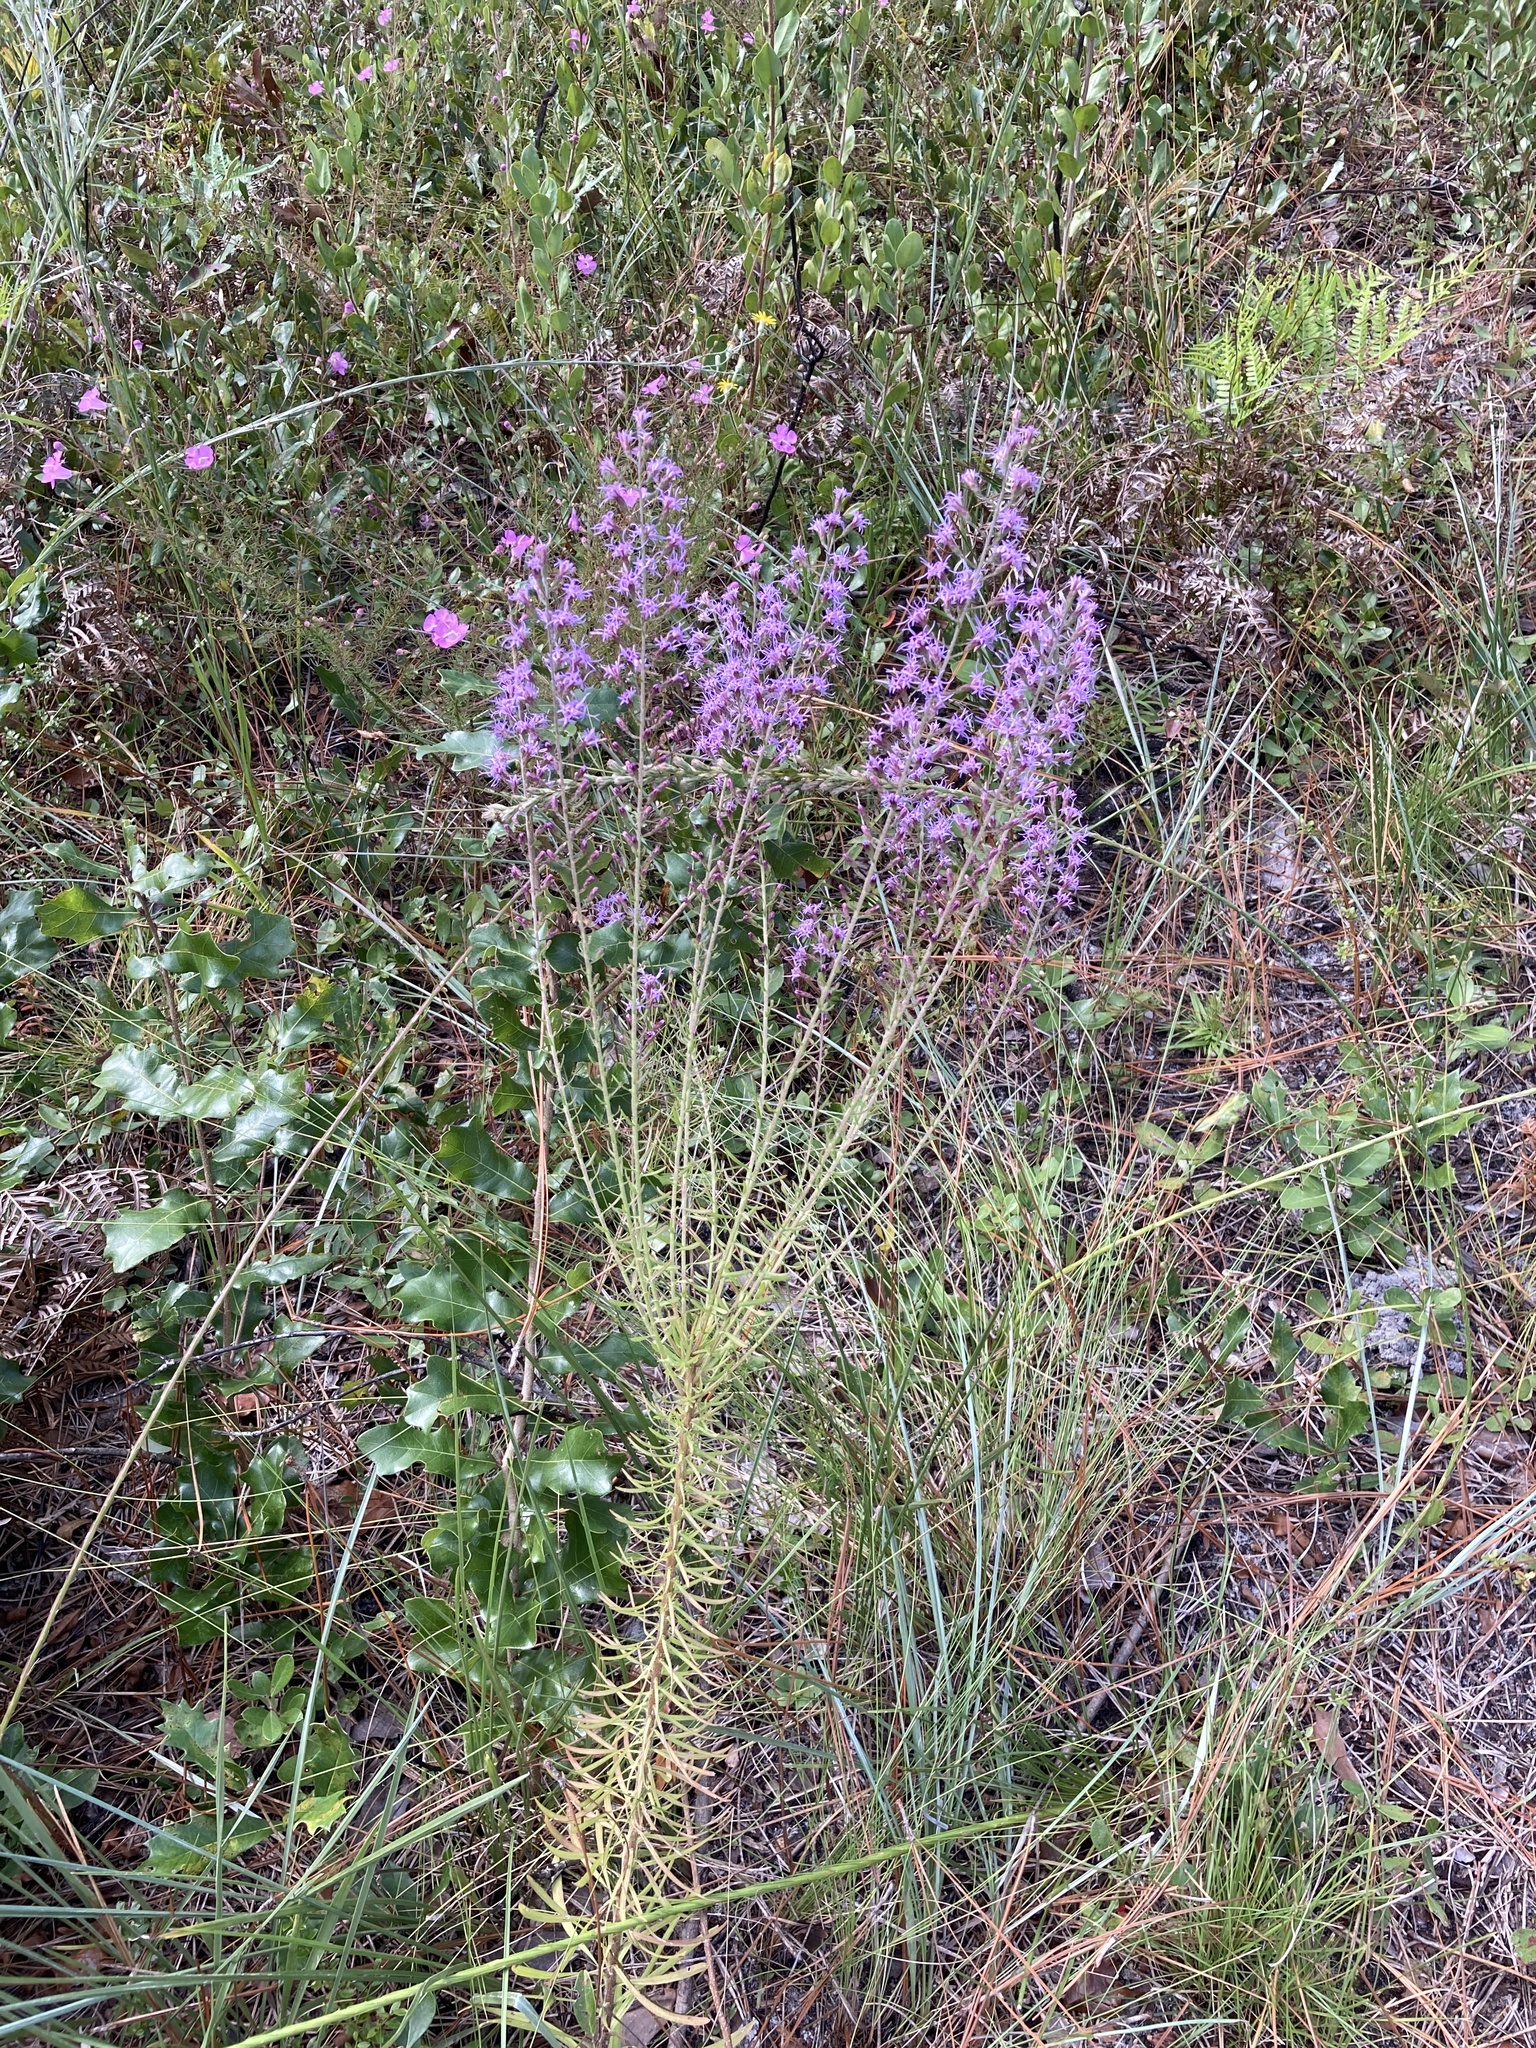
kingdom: Plantae
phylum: Tracheophyta
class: Magnoliopsida
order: Asterales
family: Asteraceae
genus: Liatris
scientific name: Liatris gracilis
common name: Slender gayfeather
